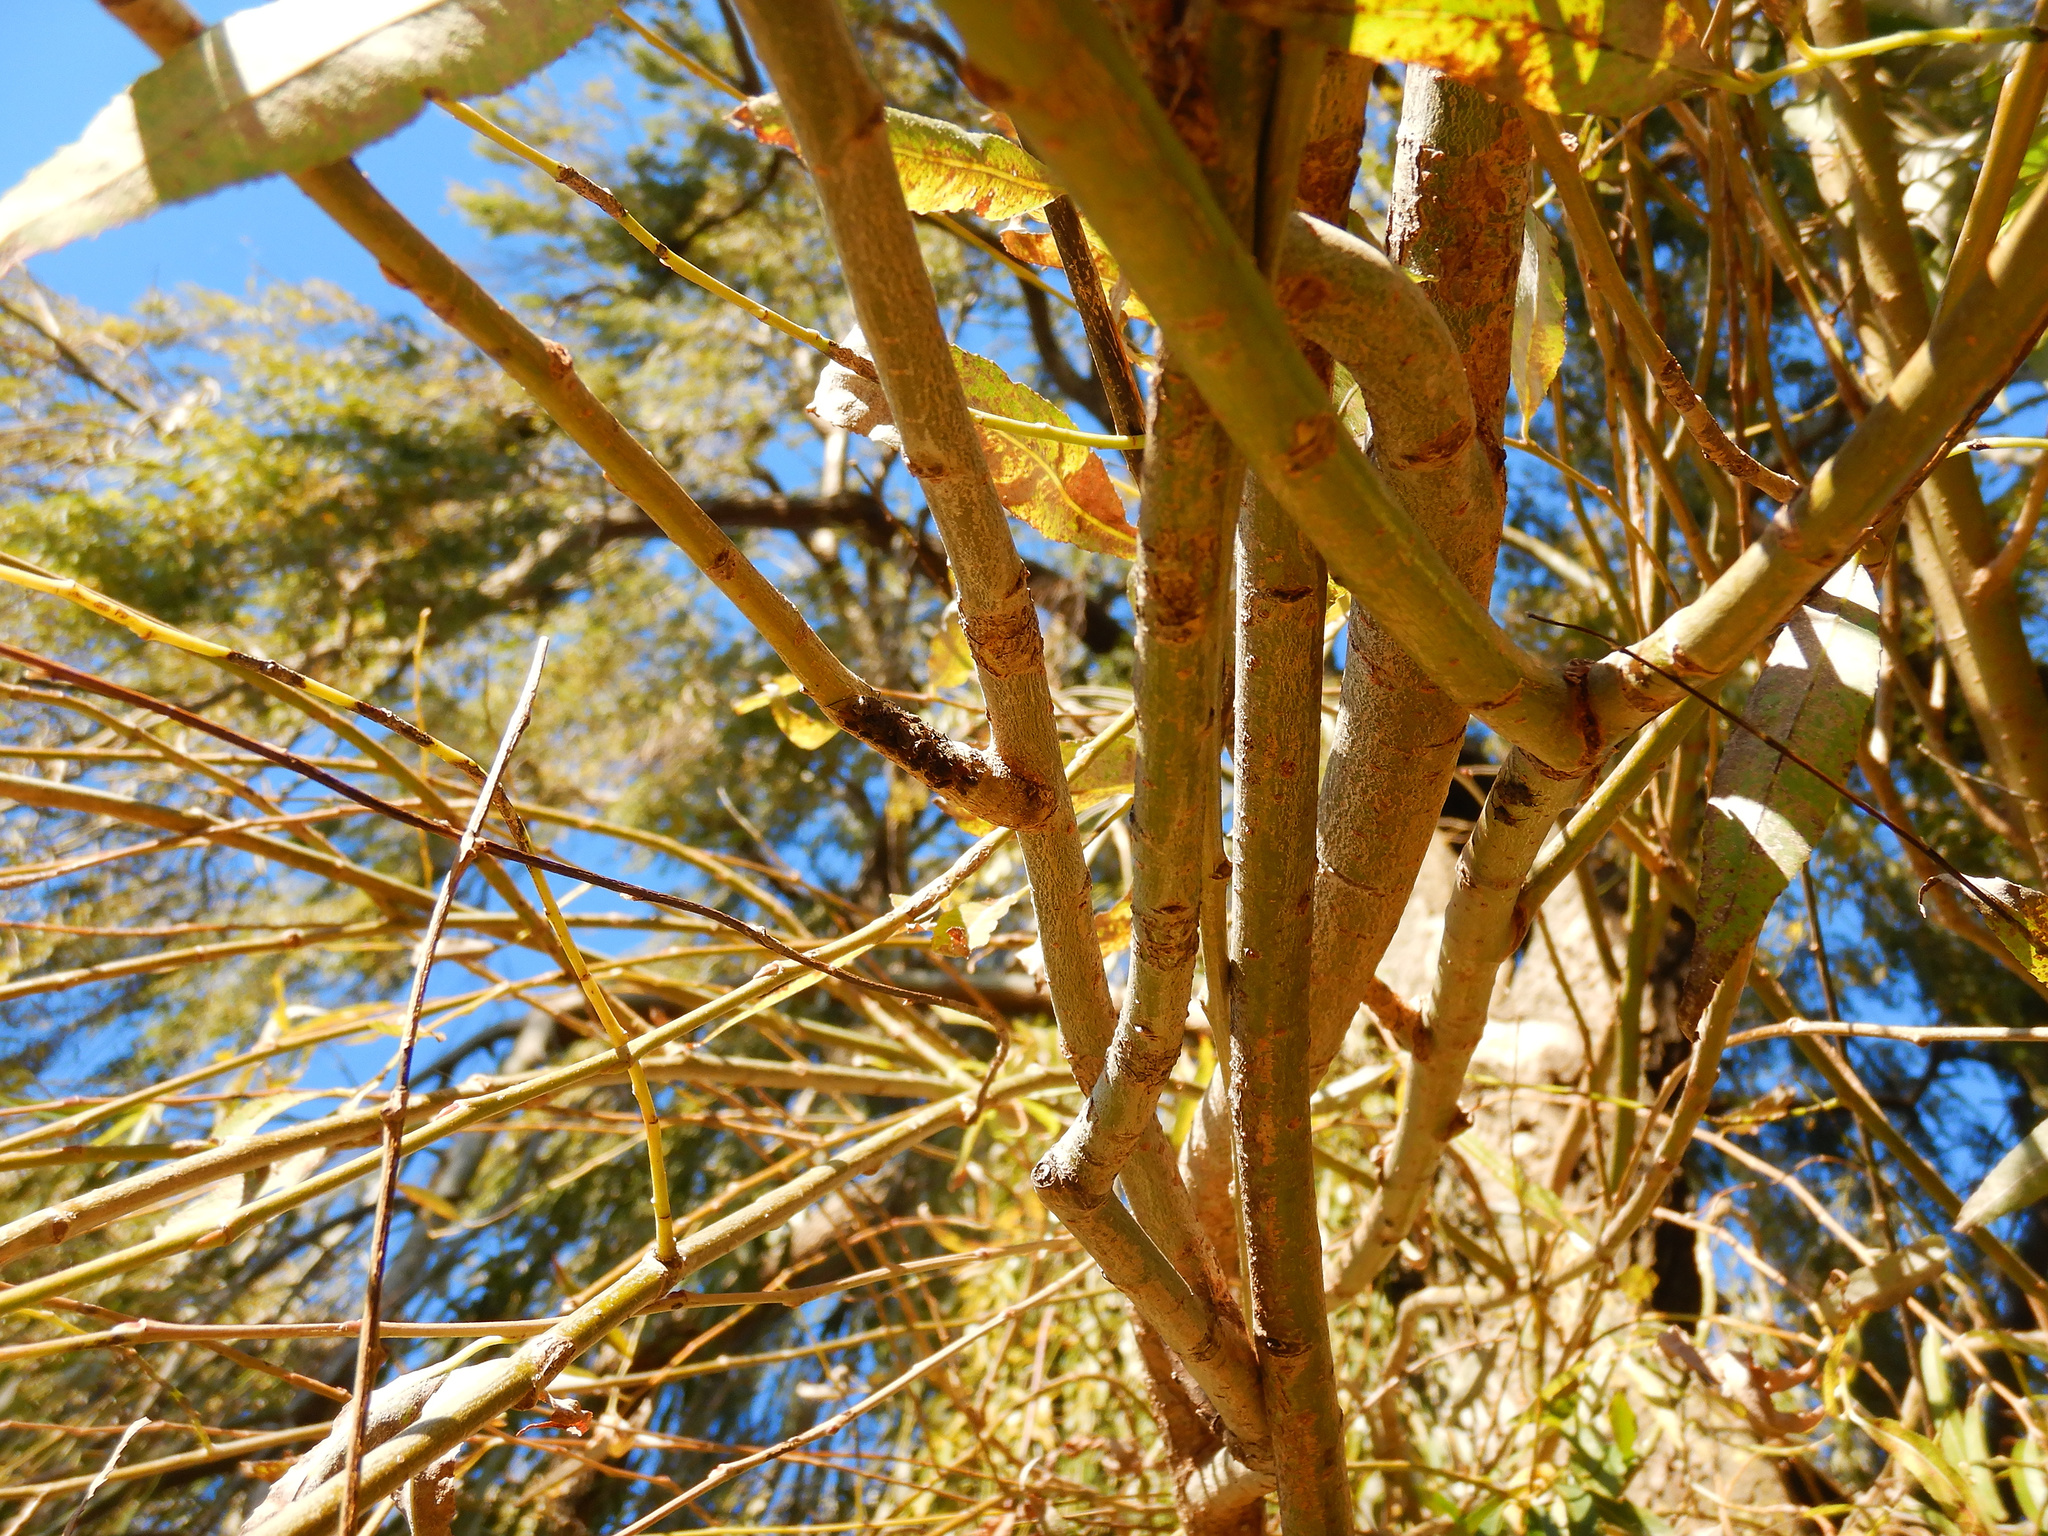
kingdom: Animalia
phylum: Arthropoda
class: Insecta
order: Hemiptera
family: Aphididae
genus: Tuberolachnus
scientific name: Tuberolachnus salignus
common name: Giant willow aphid
